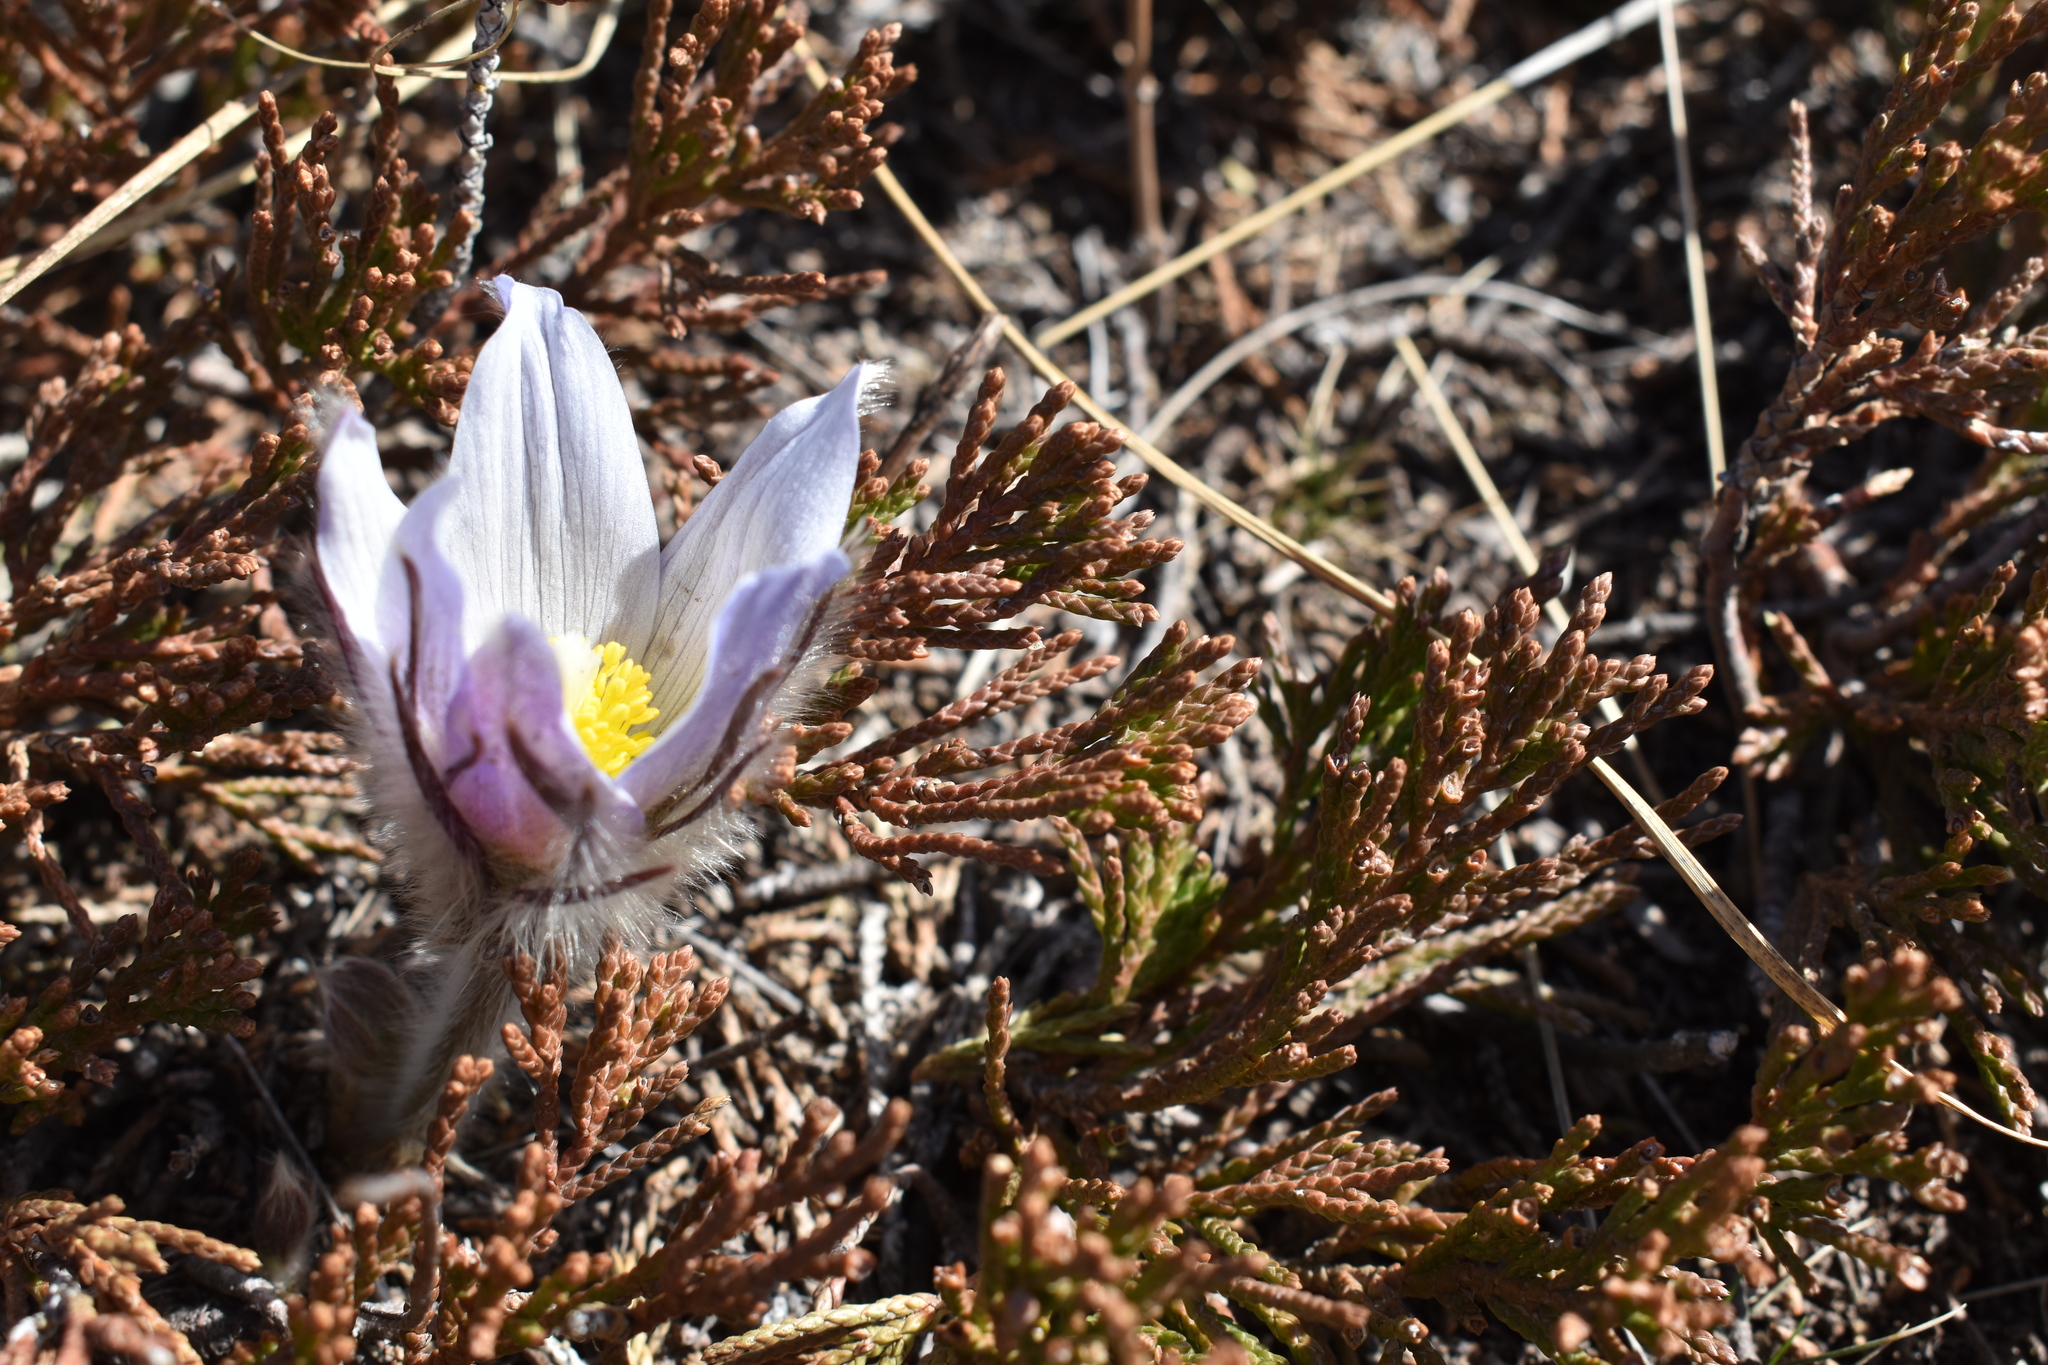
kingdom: Plantae
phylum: Tracheophyta
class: Magnoliopsida
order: Ranunculales
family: Ranunculaceae
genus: Pulsatilla
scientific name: Pulsatilla nuttalliana
